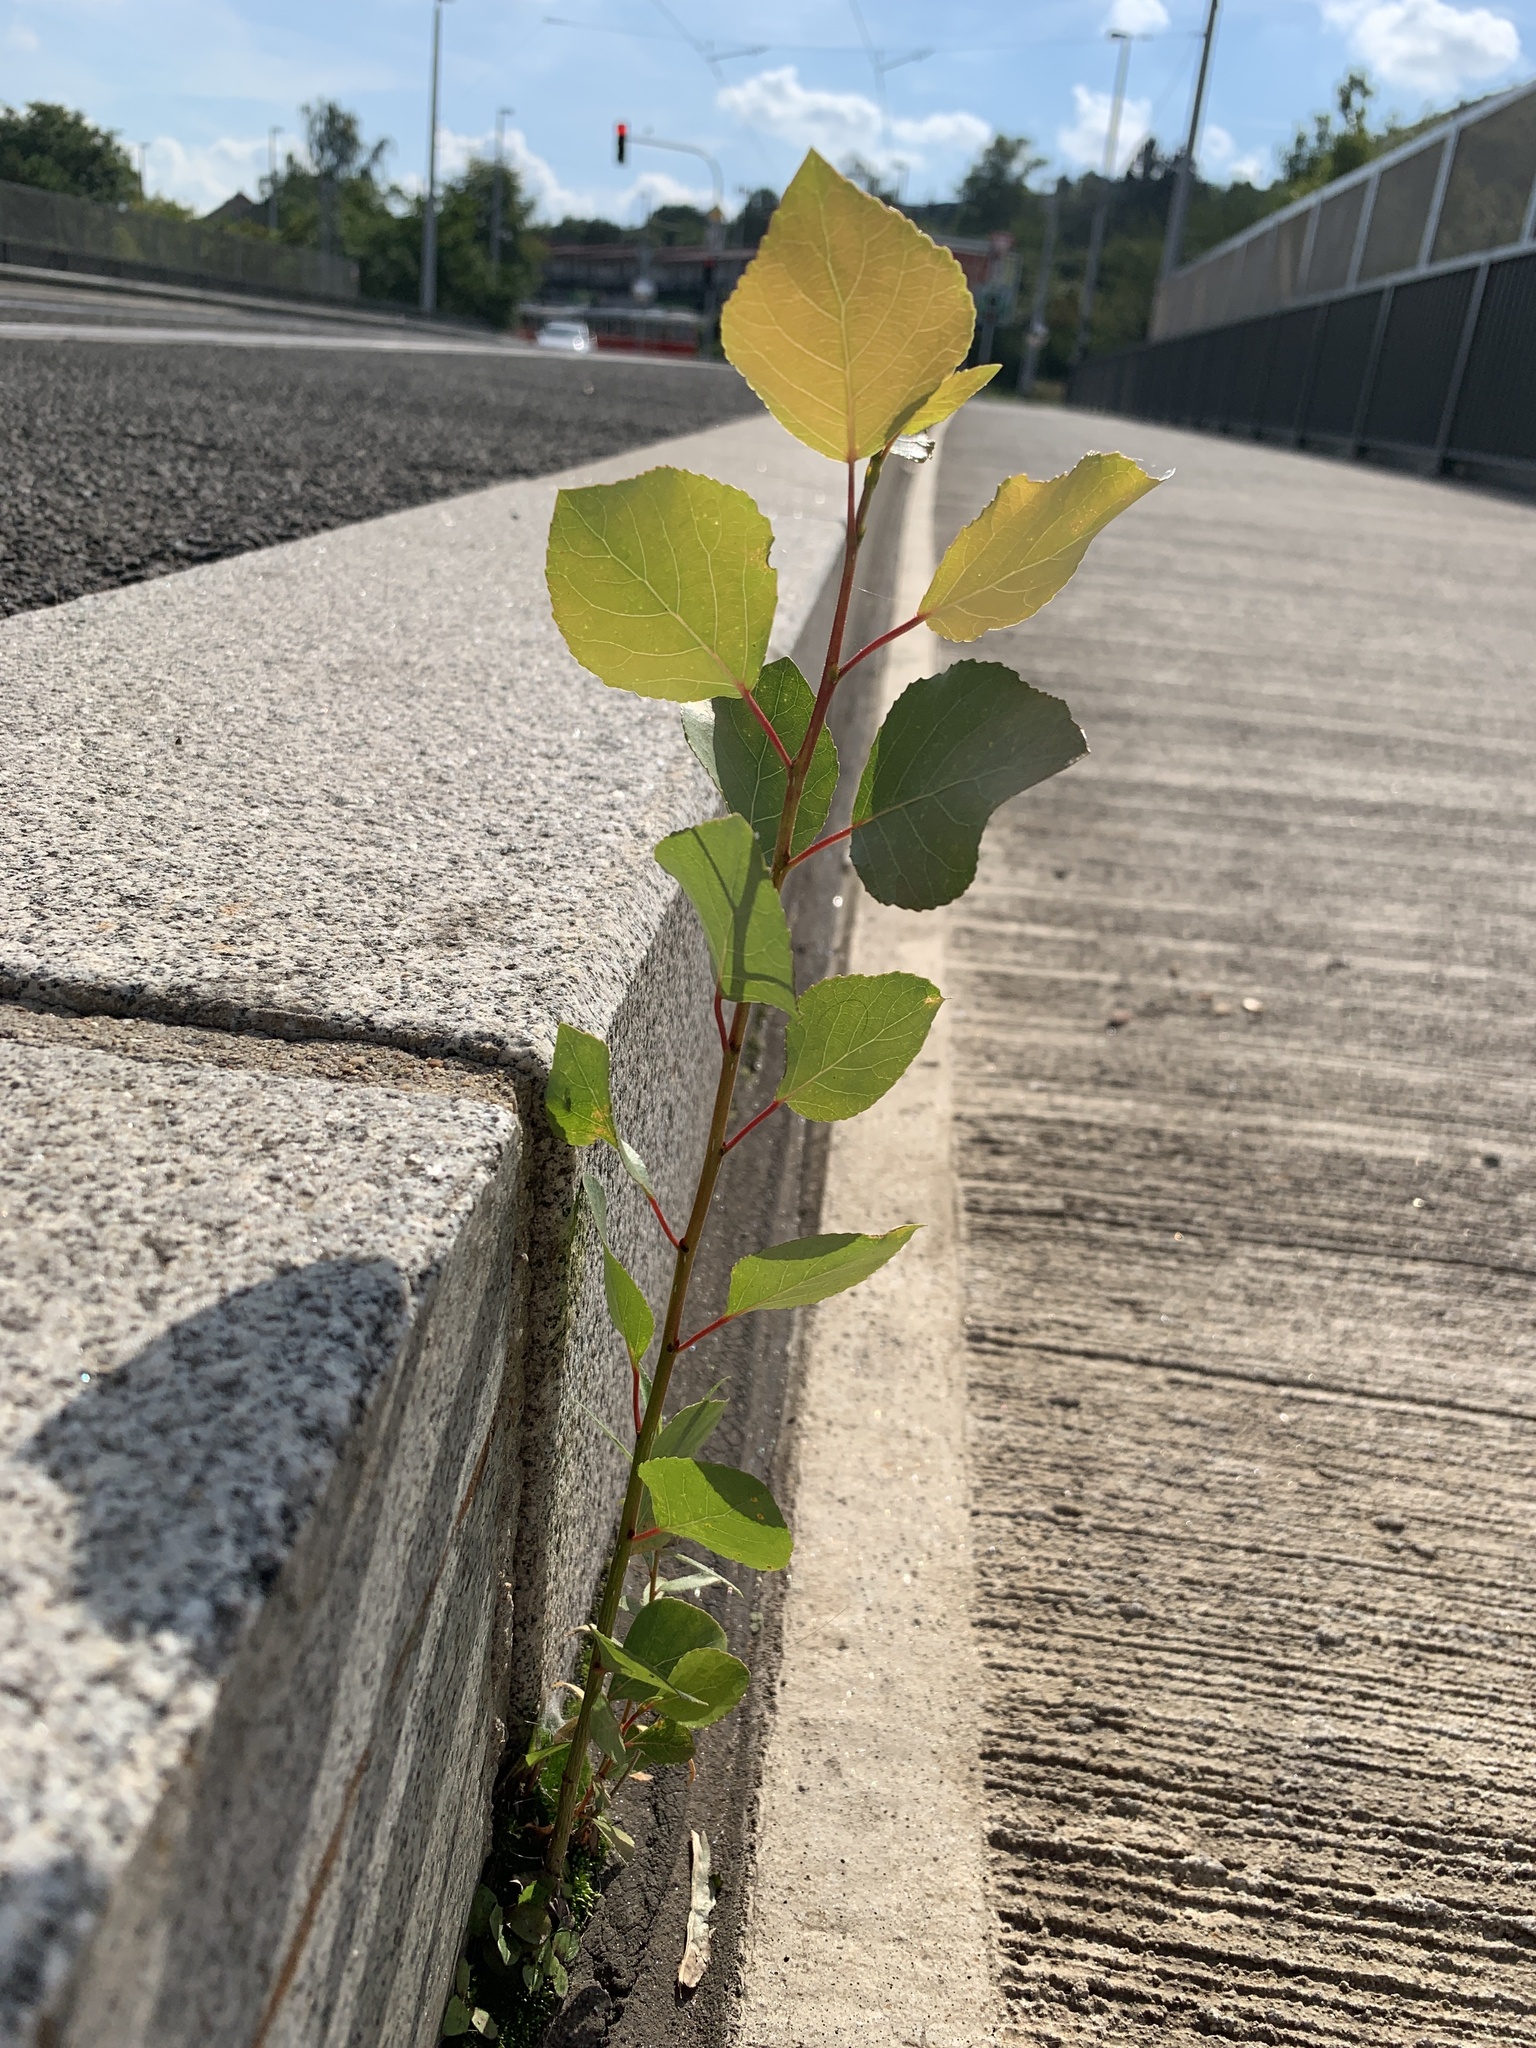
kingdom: Plantae
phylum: Tracheophyta
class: Magnoliopsida
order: Malpighiales
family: Salicaceae
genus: Populus
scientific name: Populus nigra
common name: Black poplar
